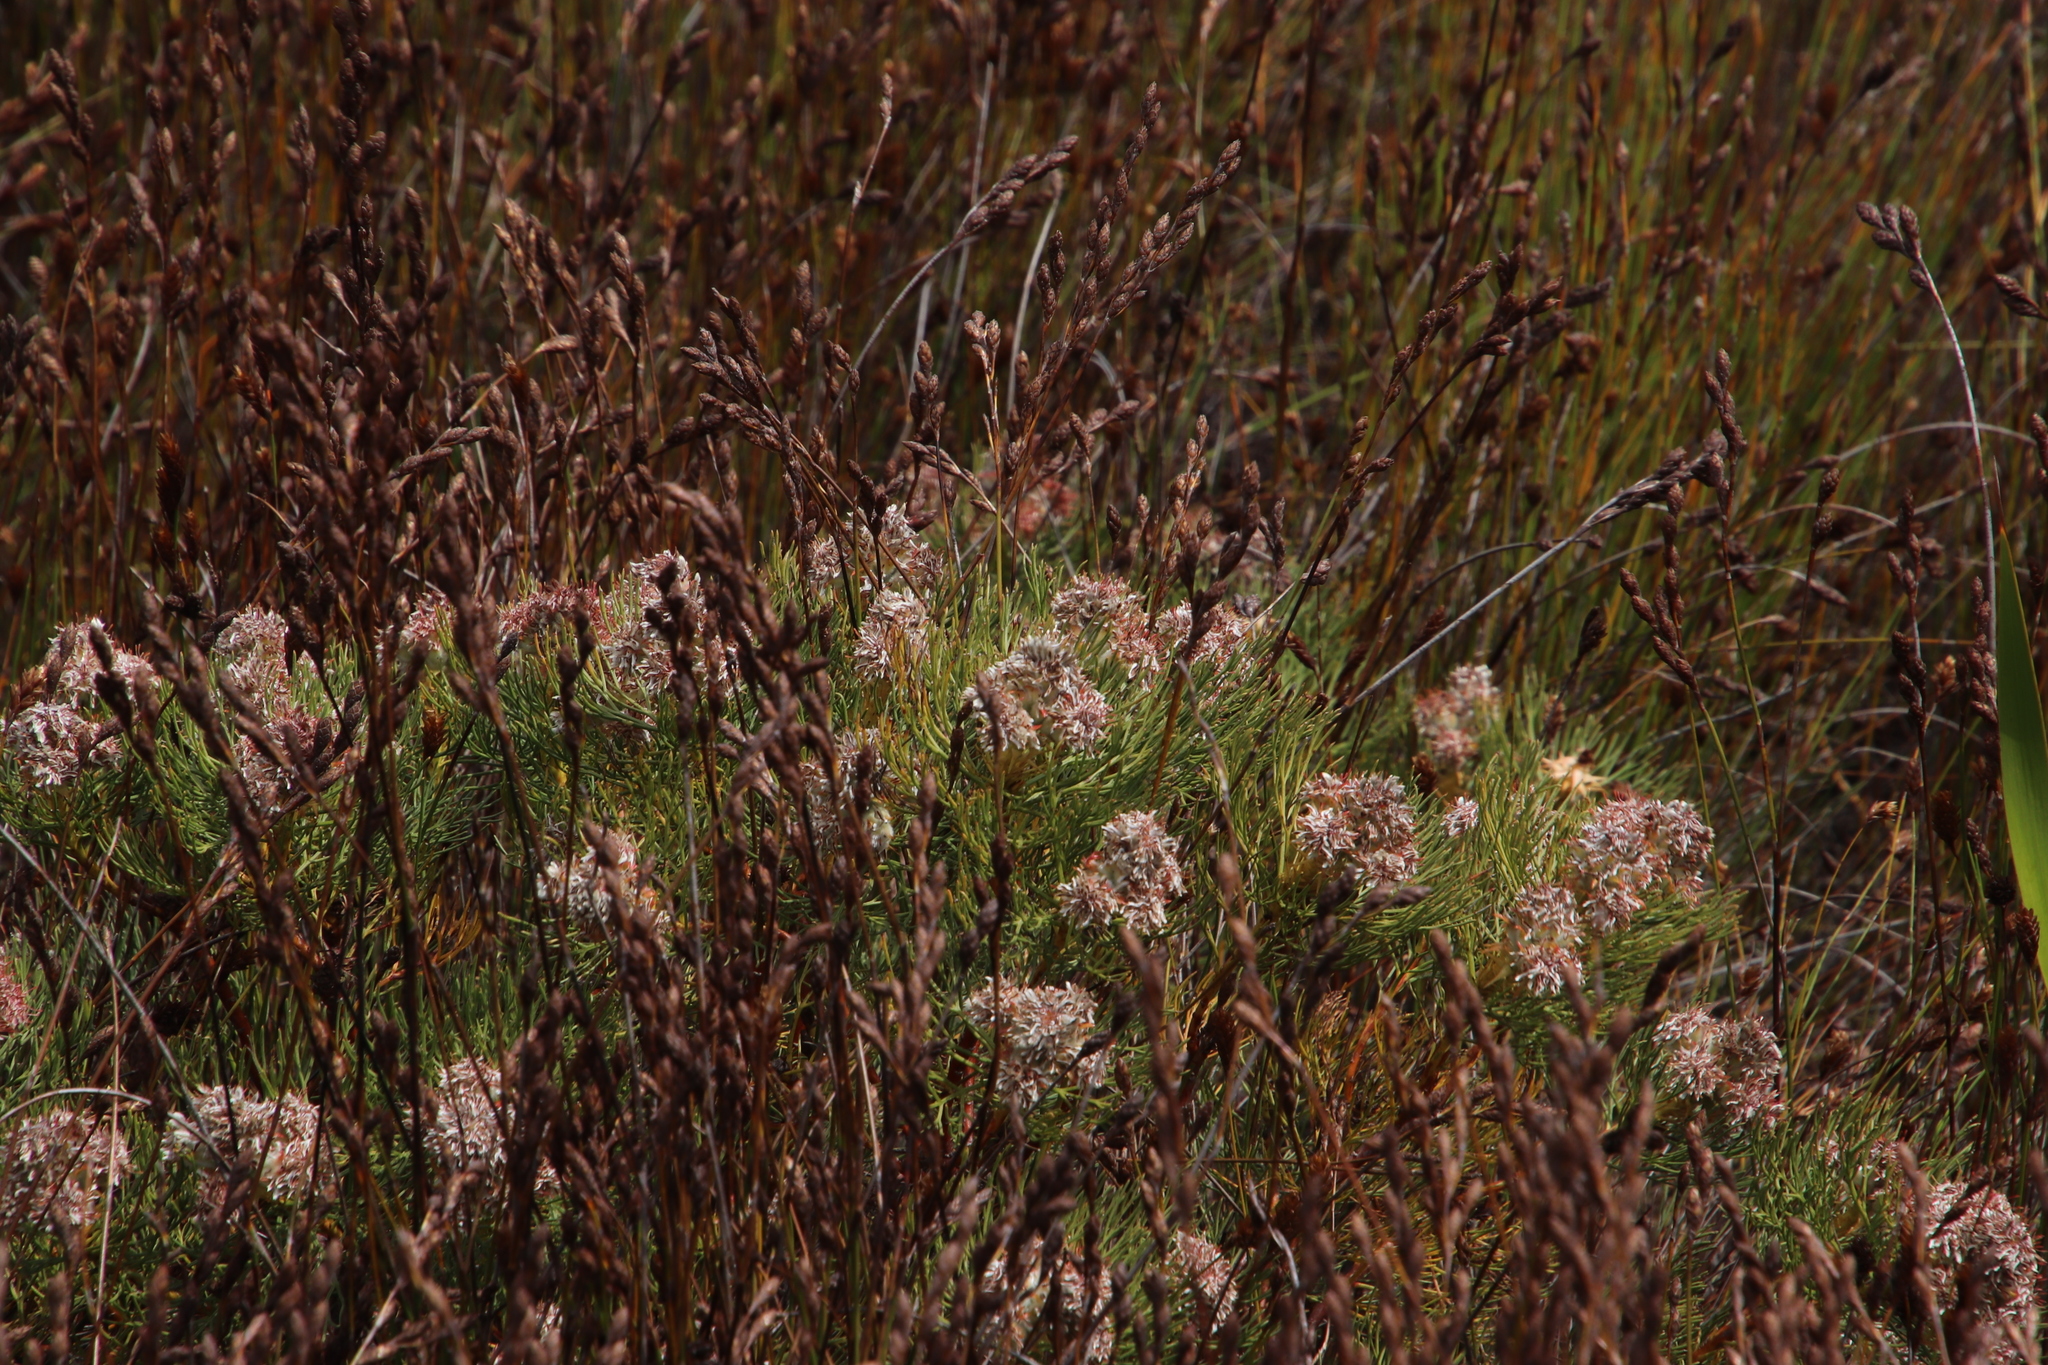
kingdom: Plantae
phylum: Tracheophyta
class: Magnoliopsida
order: Proteales
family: Proteaceae
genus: Serruria
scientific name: Serruria glomerata
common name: Cluster spiderhead
